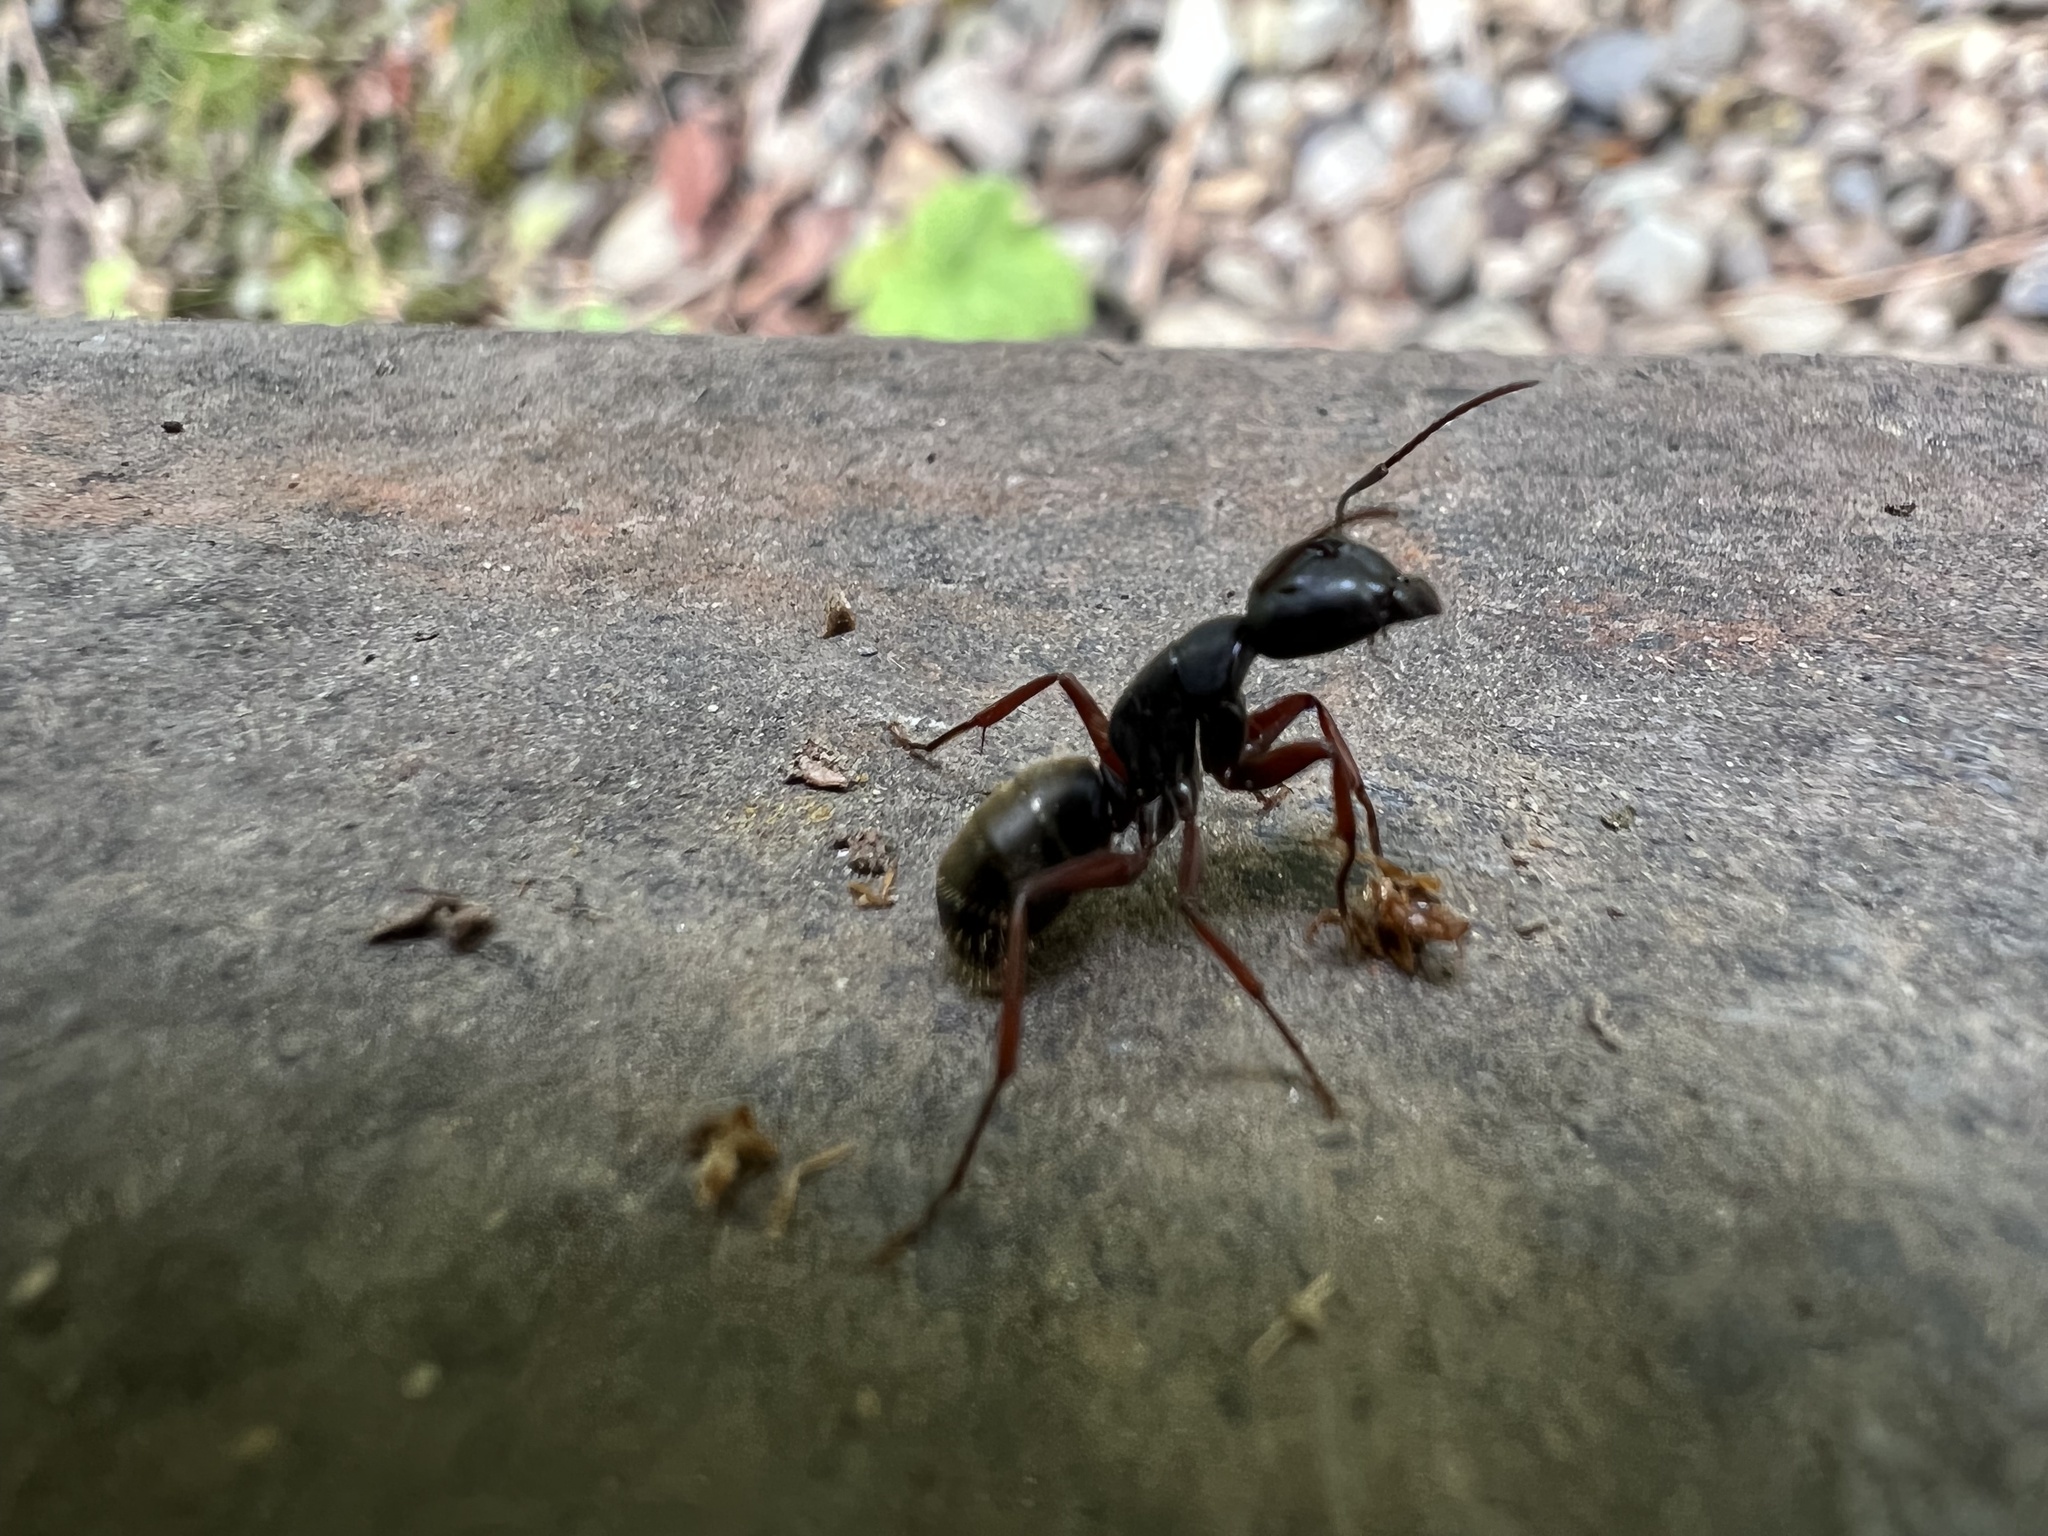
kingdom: Animalia
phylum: Arthropoda
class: Insecta
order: Hymenoptera
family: Formicidae
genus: Camponotus
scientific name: Camponotus modoc
